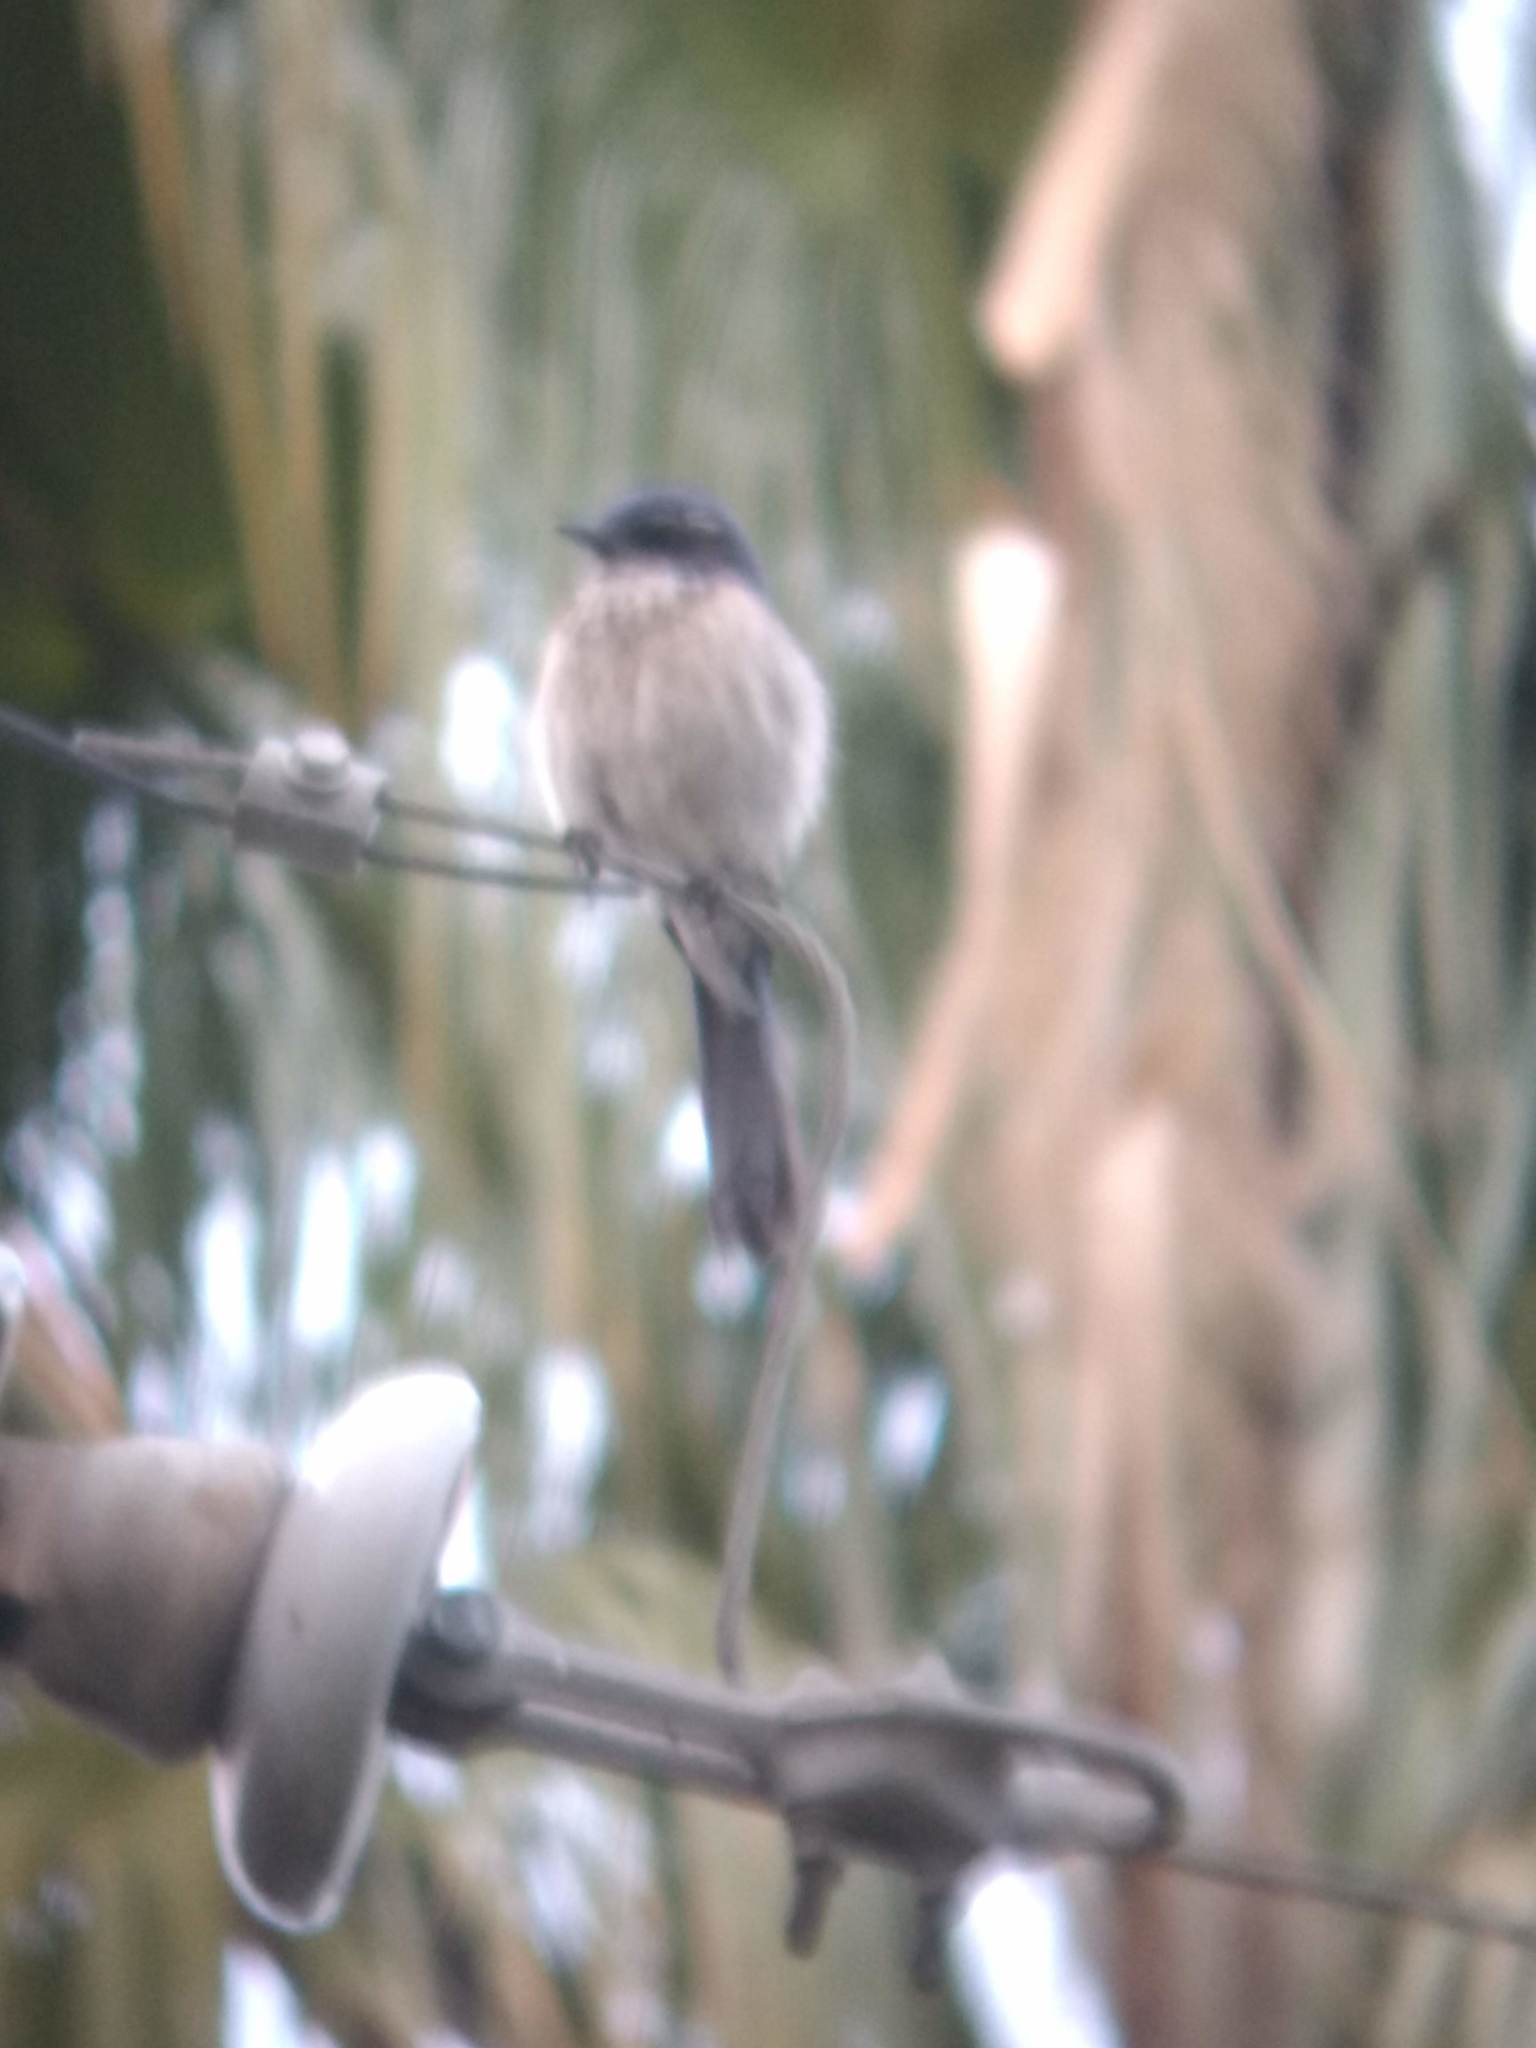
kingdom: Animalia
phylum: Chordata
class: Aves
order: Passeriformes
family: Corvidae
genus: Aphelocoma
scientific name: Aphelocoma californica
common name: California scrub-jay
